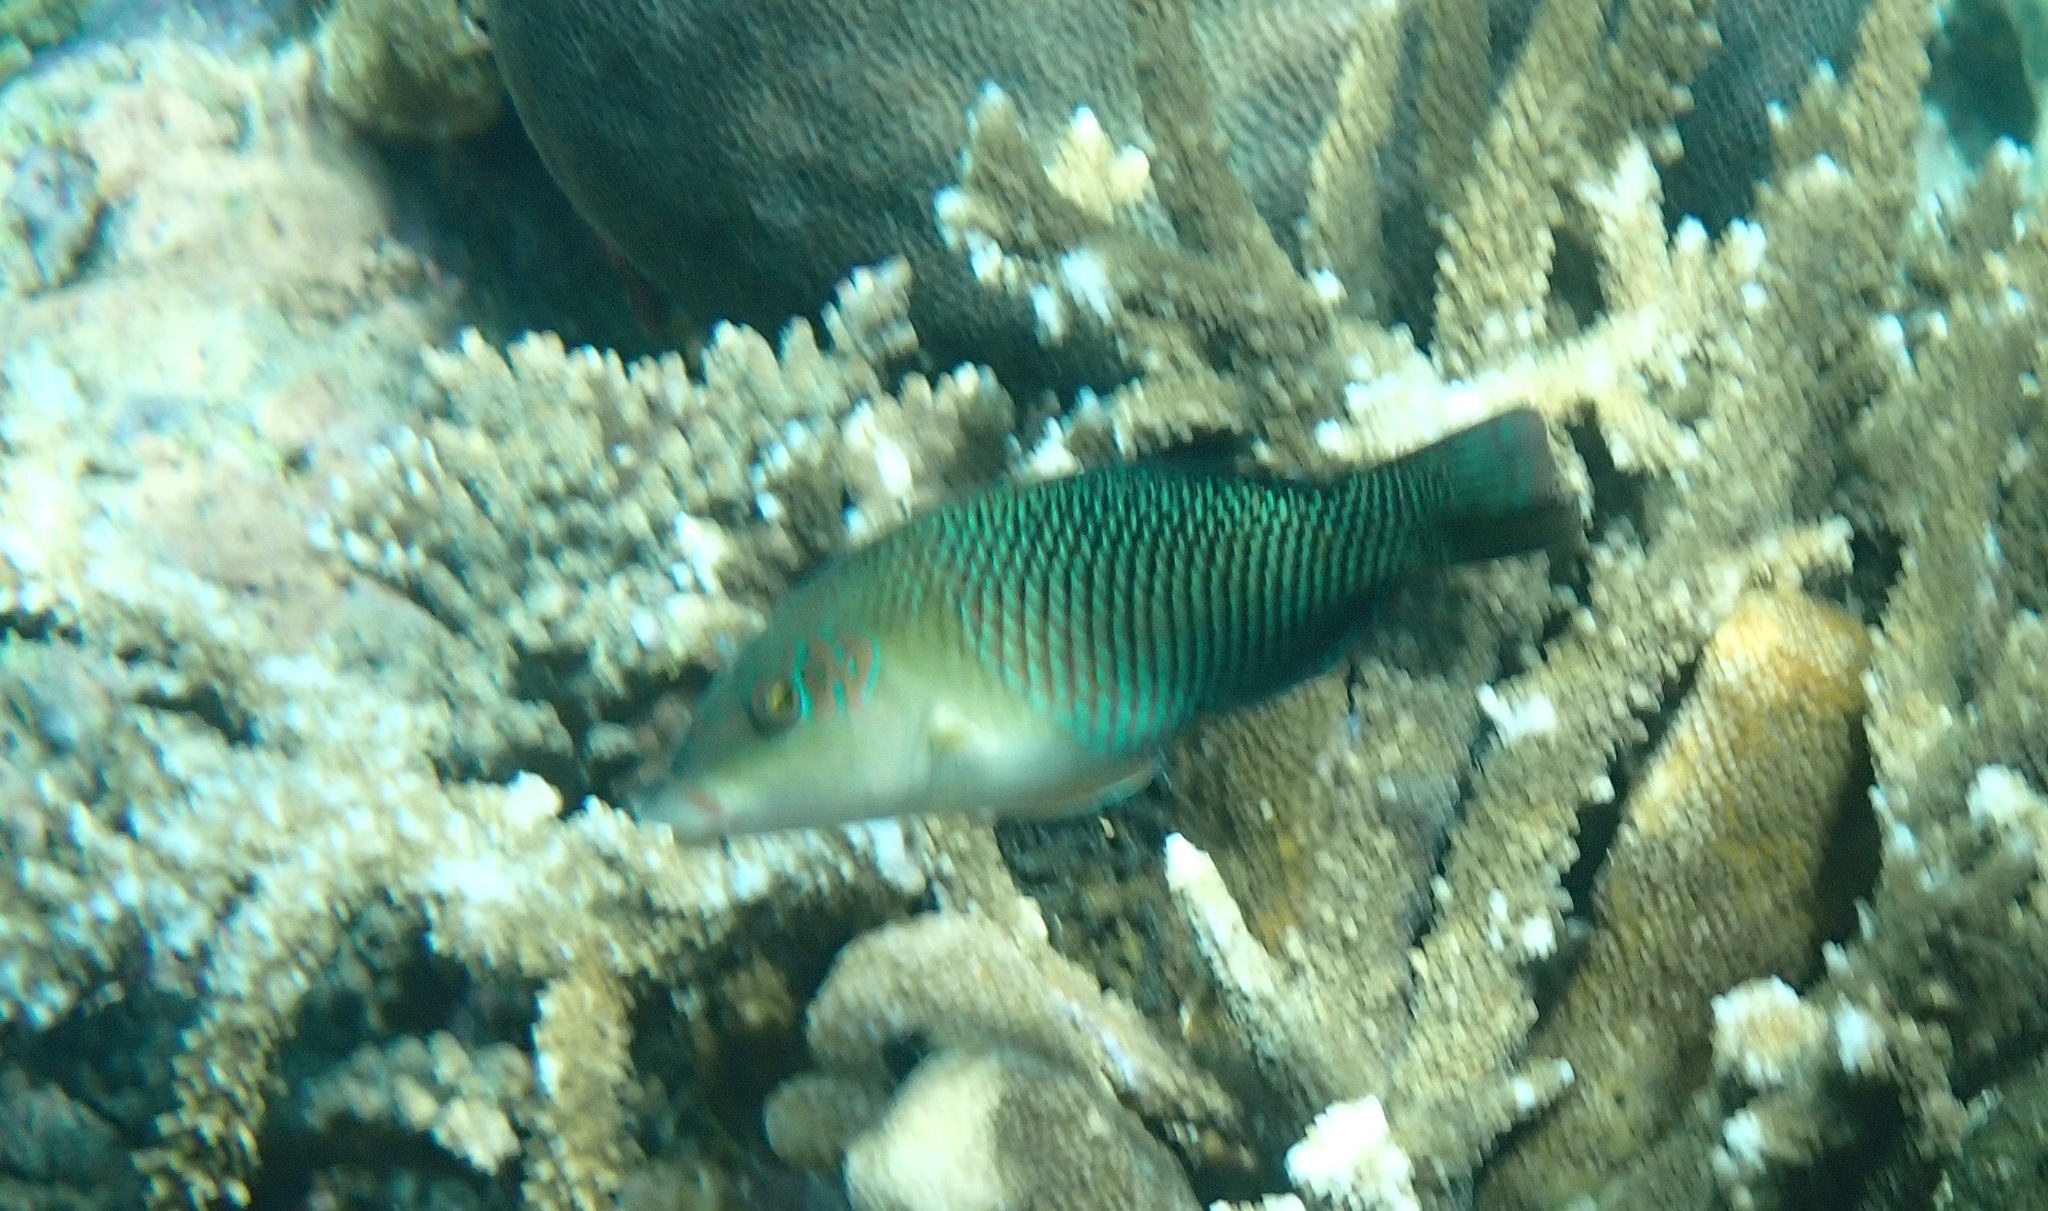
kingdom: Animalia
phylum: Chordata
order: Perciformes
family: Labridae
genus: Hemigymnus
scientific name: Hemigymnus melapterus
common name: Blackeye thicklip
